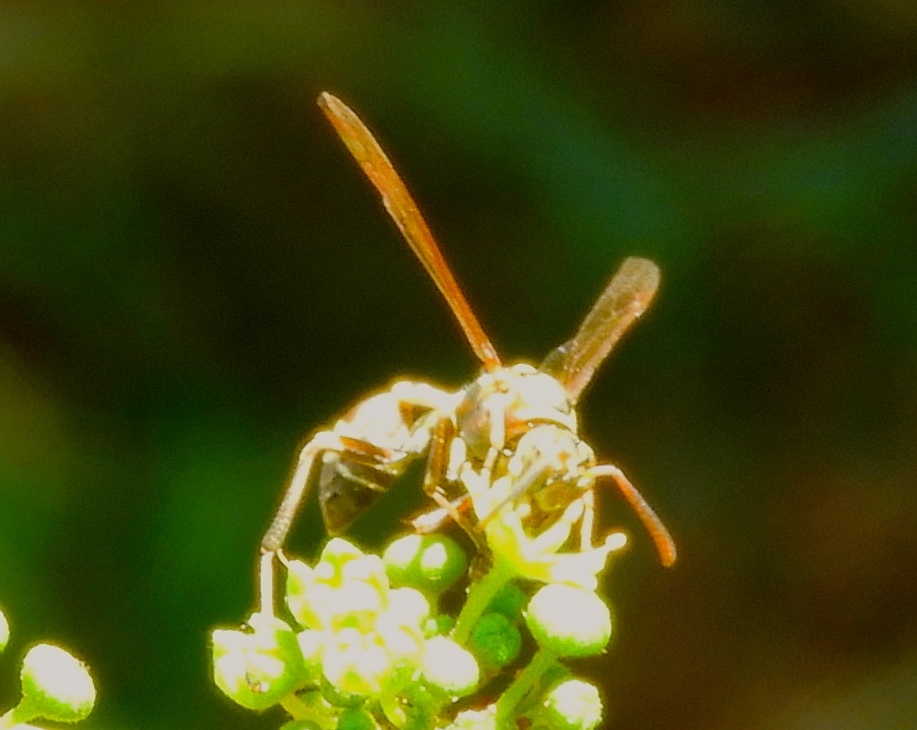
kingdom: Animalia
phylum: Arthropoda
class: Insecta
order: Hymenoptera
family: Vespidae
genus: Mischocyttarus
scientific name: Mischocyttarus mexicanus
